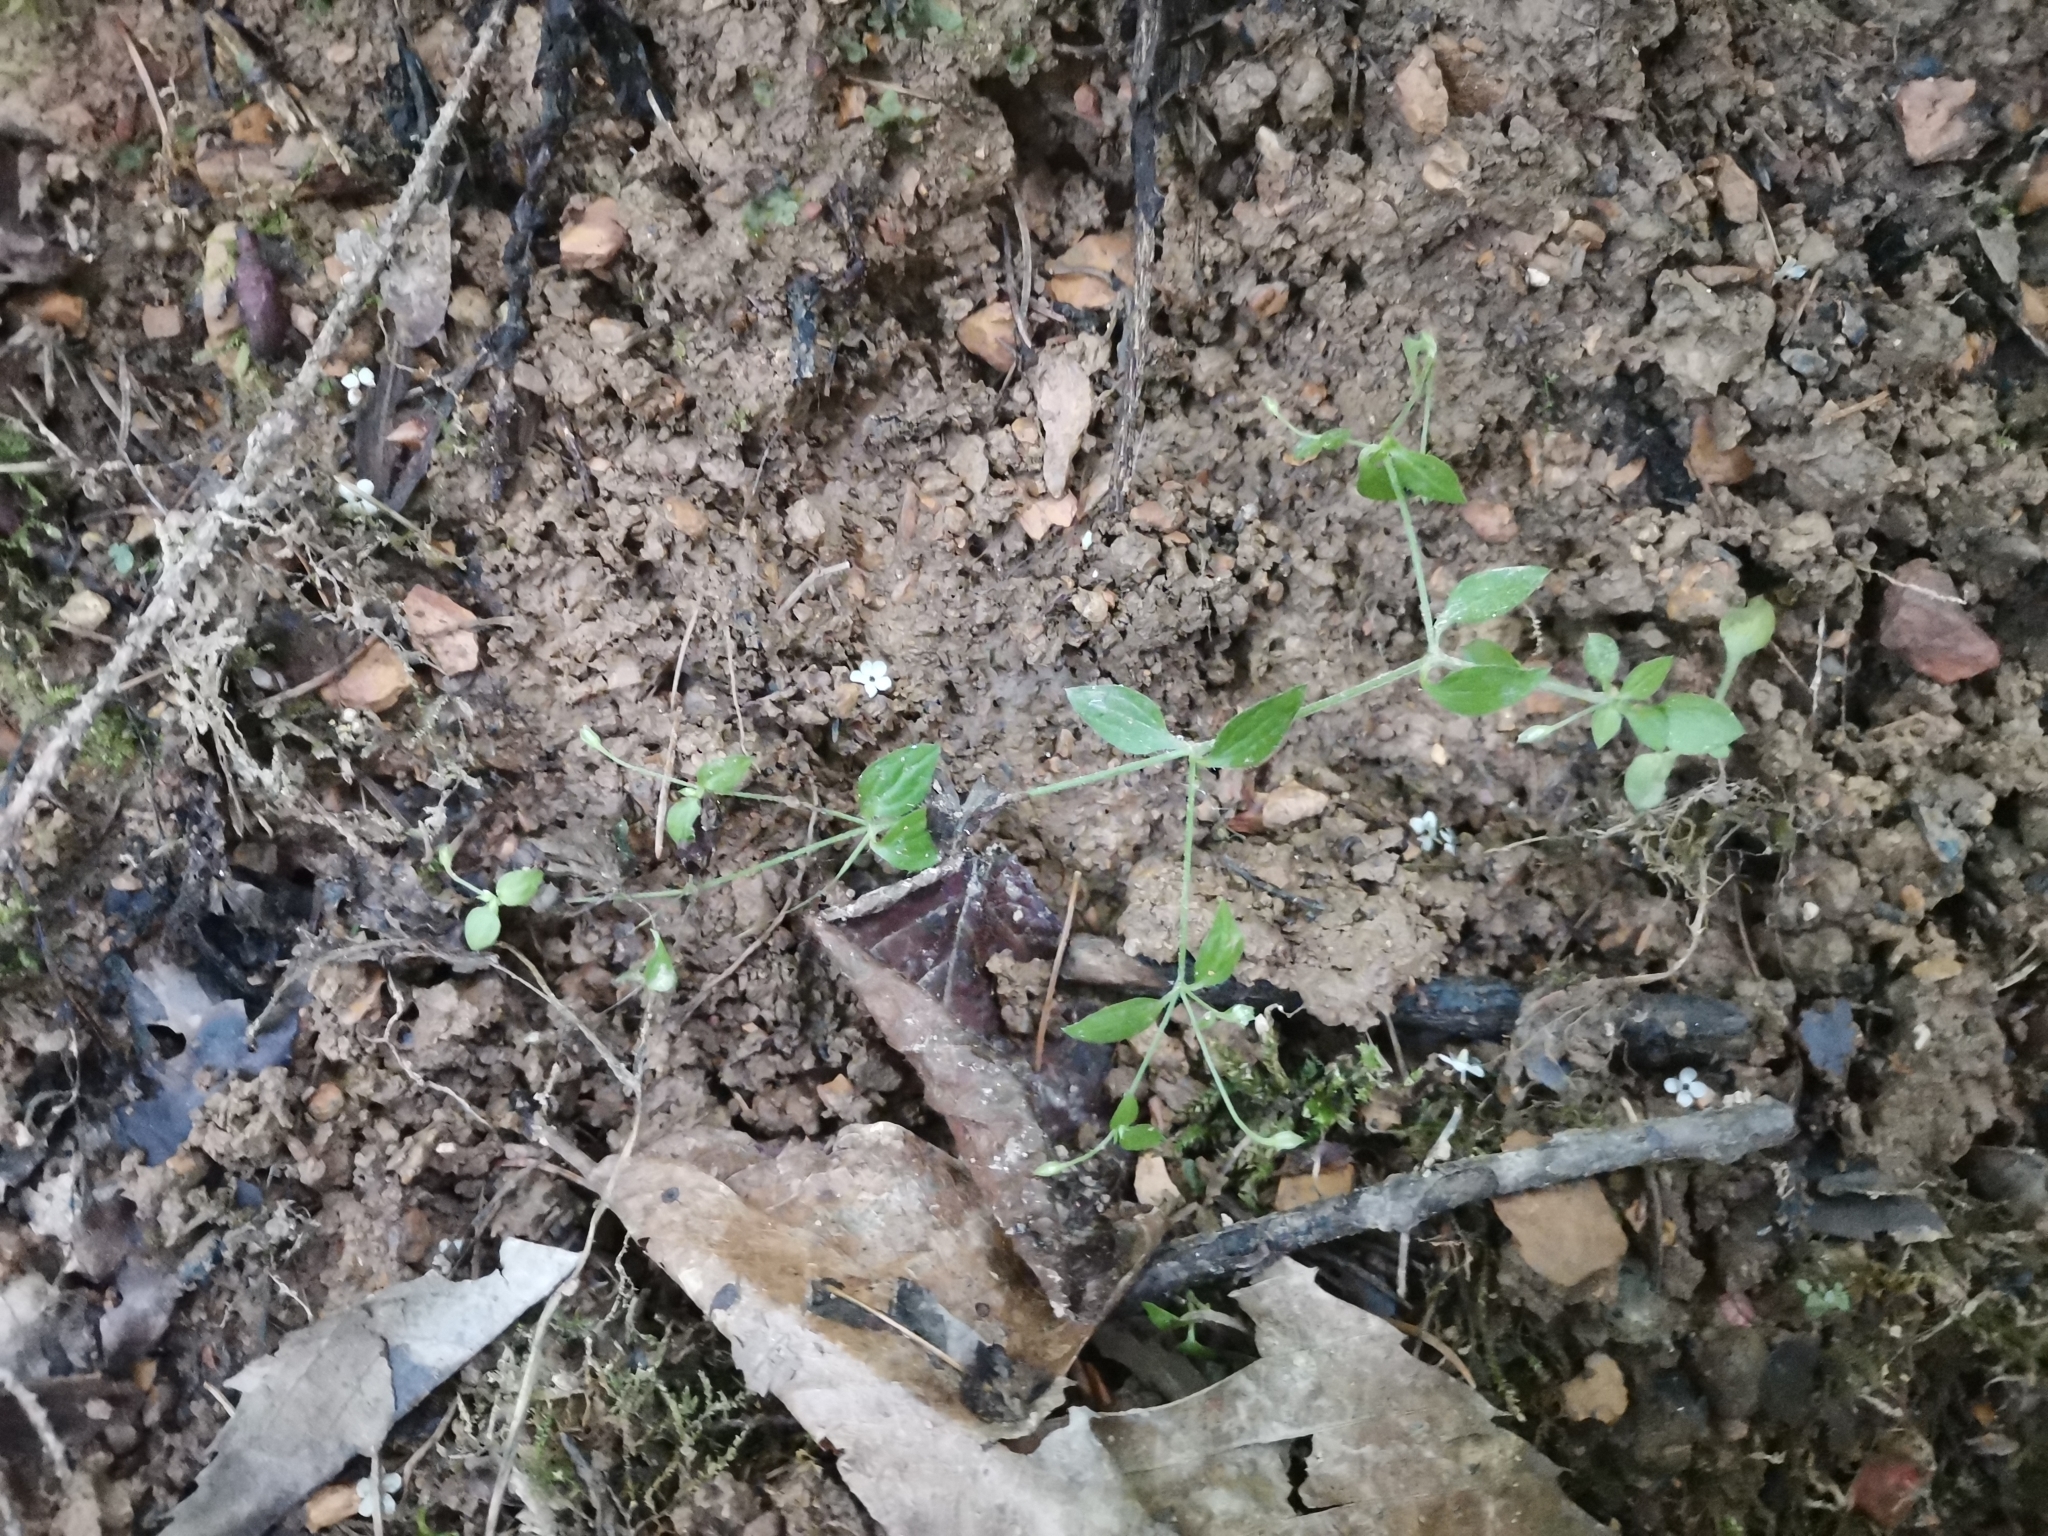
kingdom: Plantae
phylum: Tracheophyta
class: Magnoliopsida
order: Caryophyllales
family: Caryophyllaceae
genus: Moehringia
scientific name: Moehringia trinervia
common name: Three-nerved sandwort
